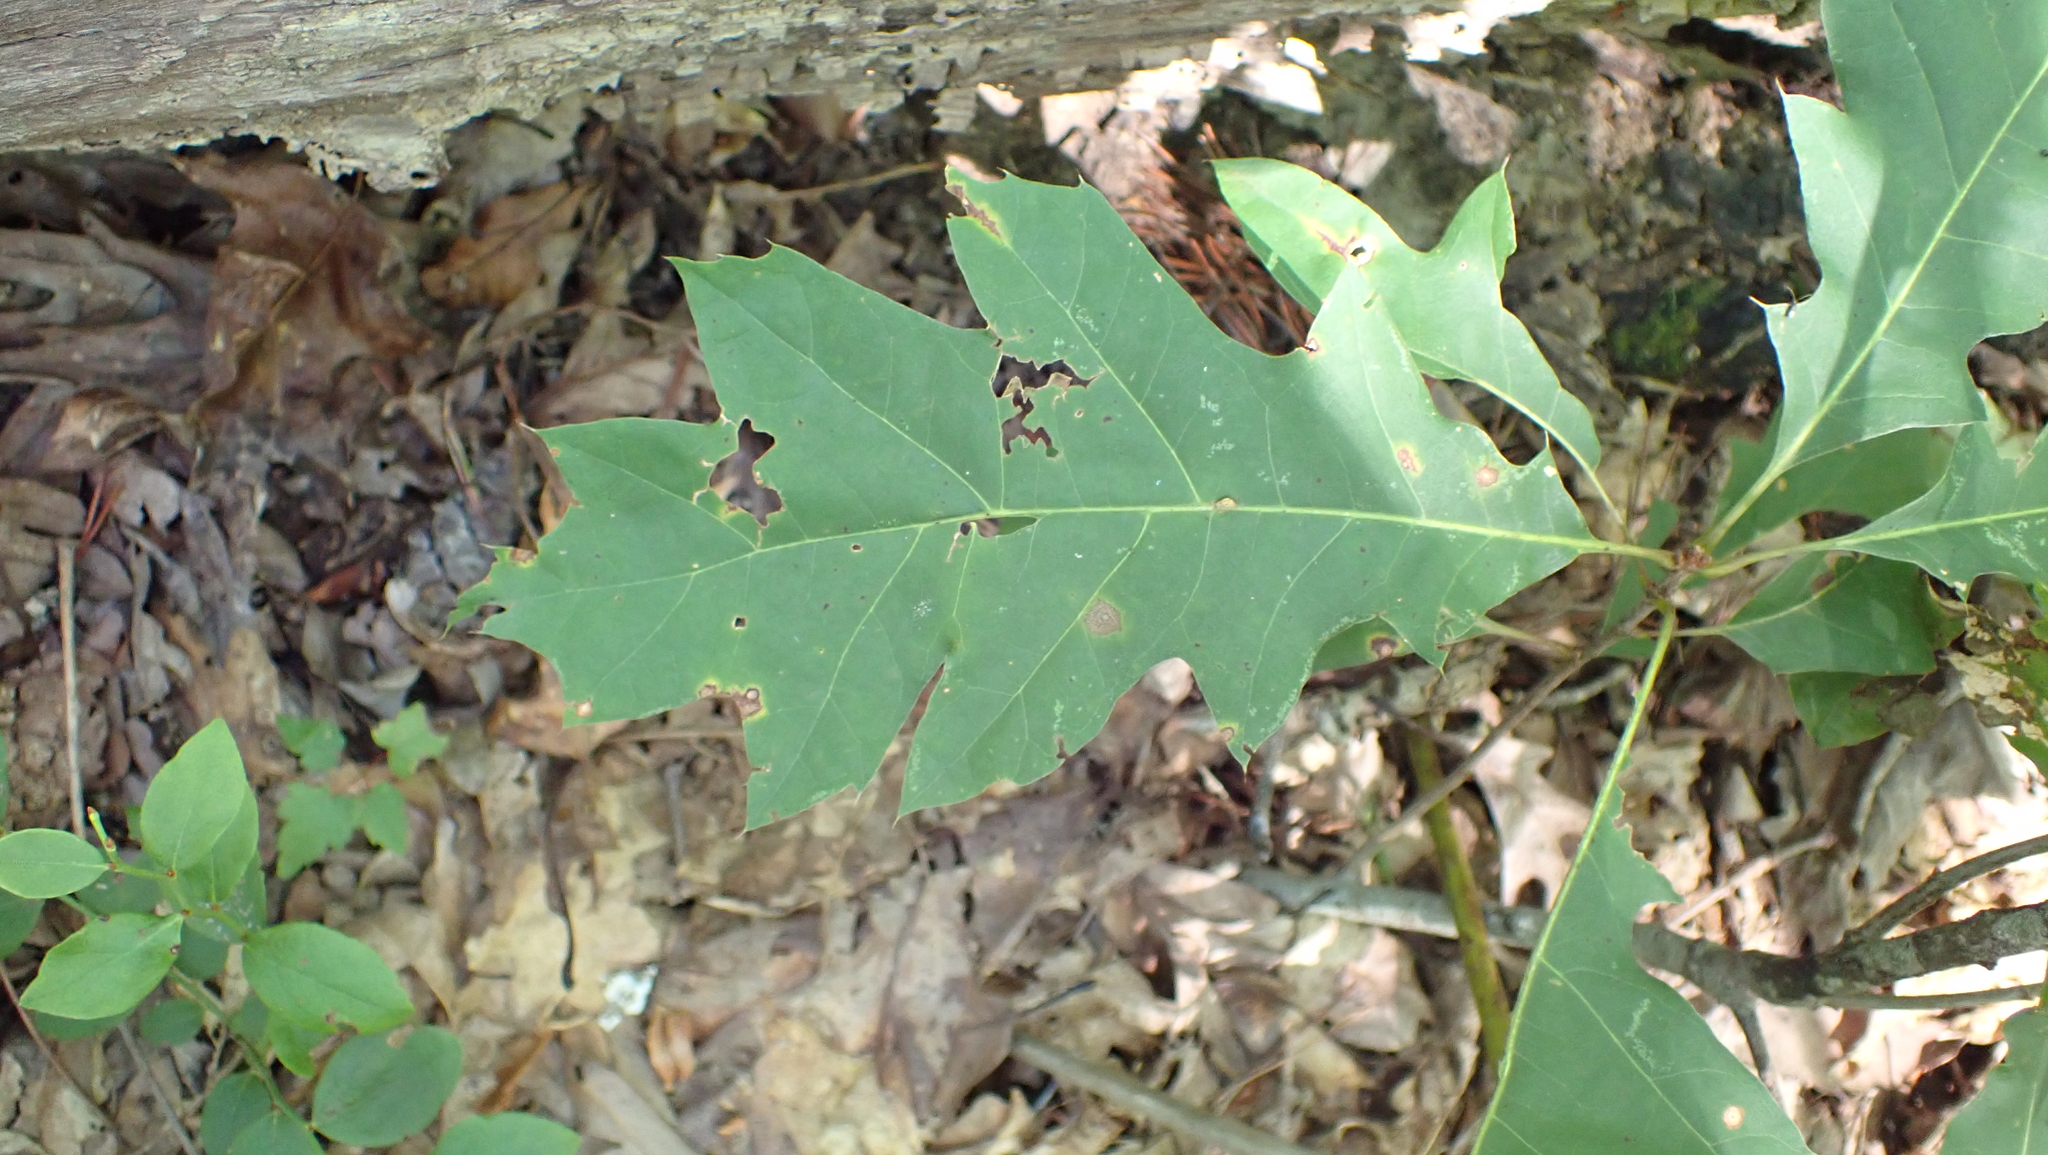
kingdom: Plantae
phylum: Tracheophyta
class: Magnoliopsida
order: Fagales
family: Fagaceae
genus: Quercus
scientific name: Quercus rubra
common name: Red oak
